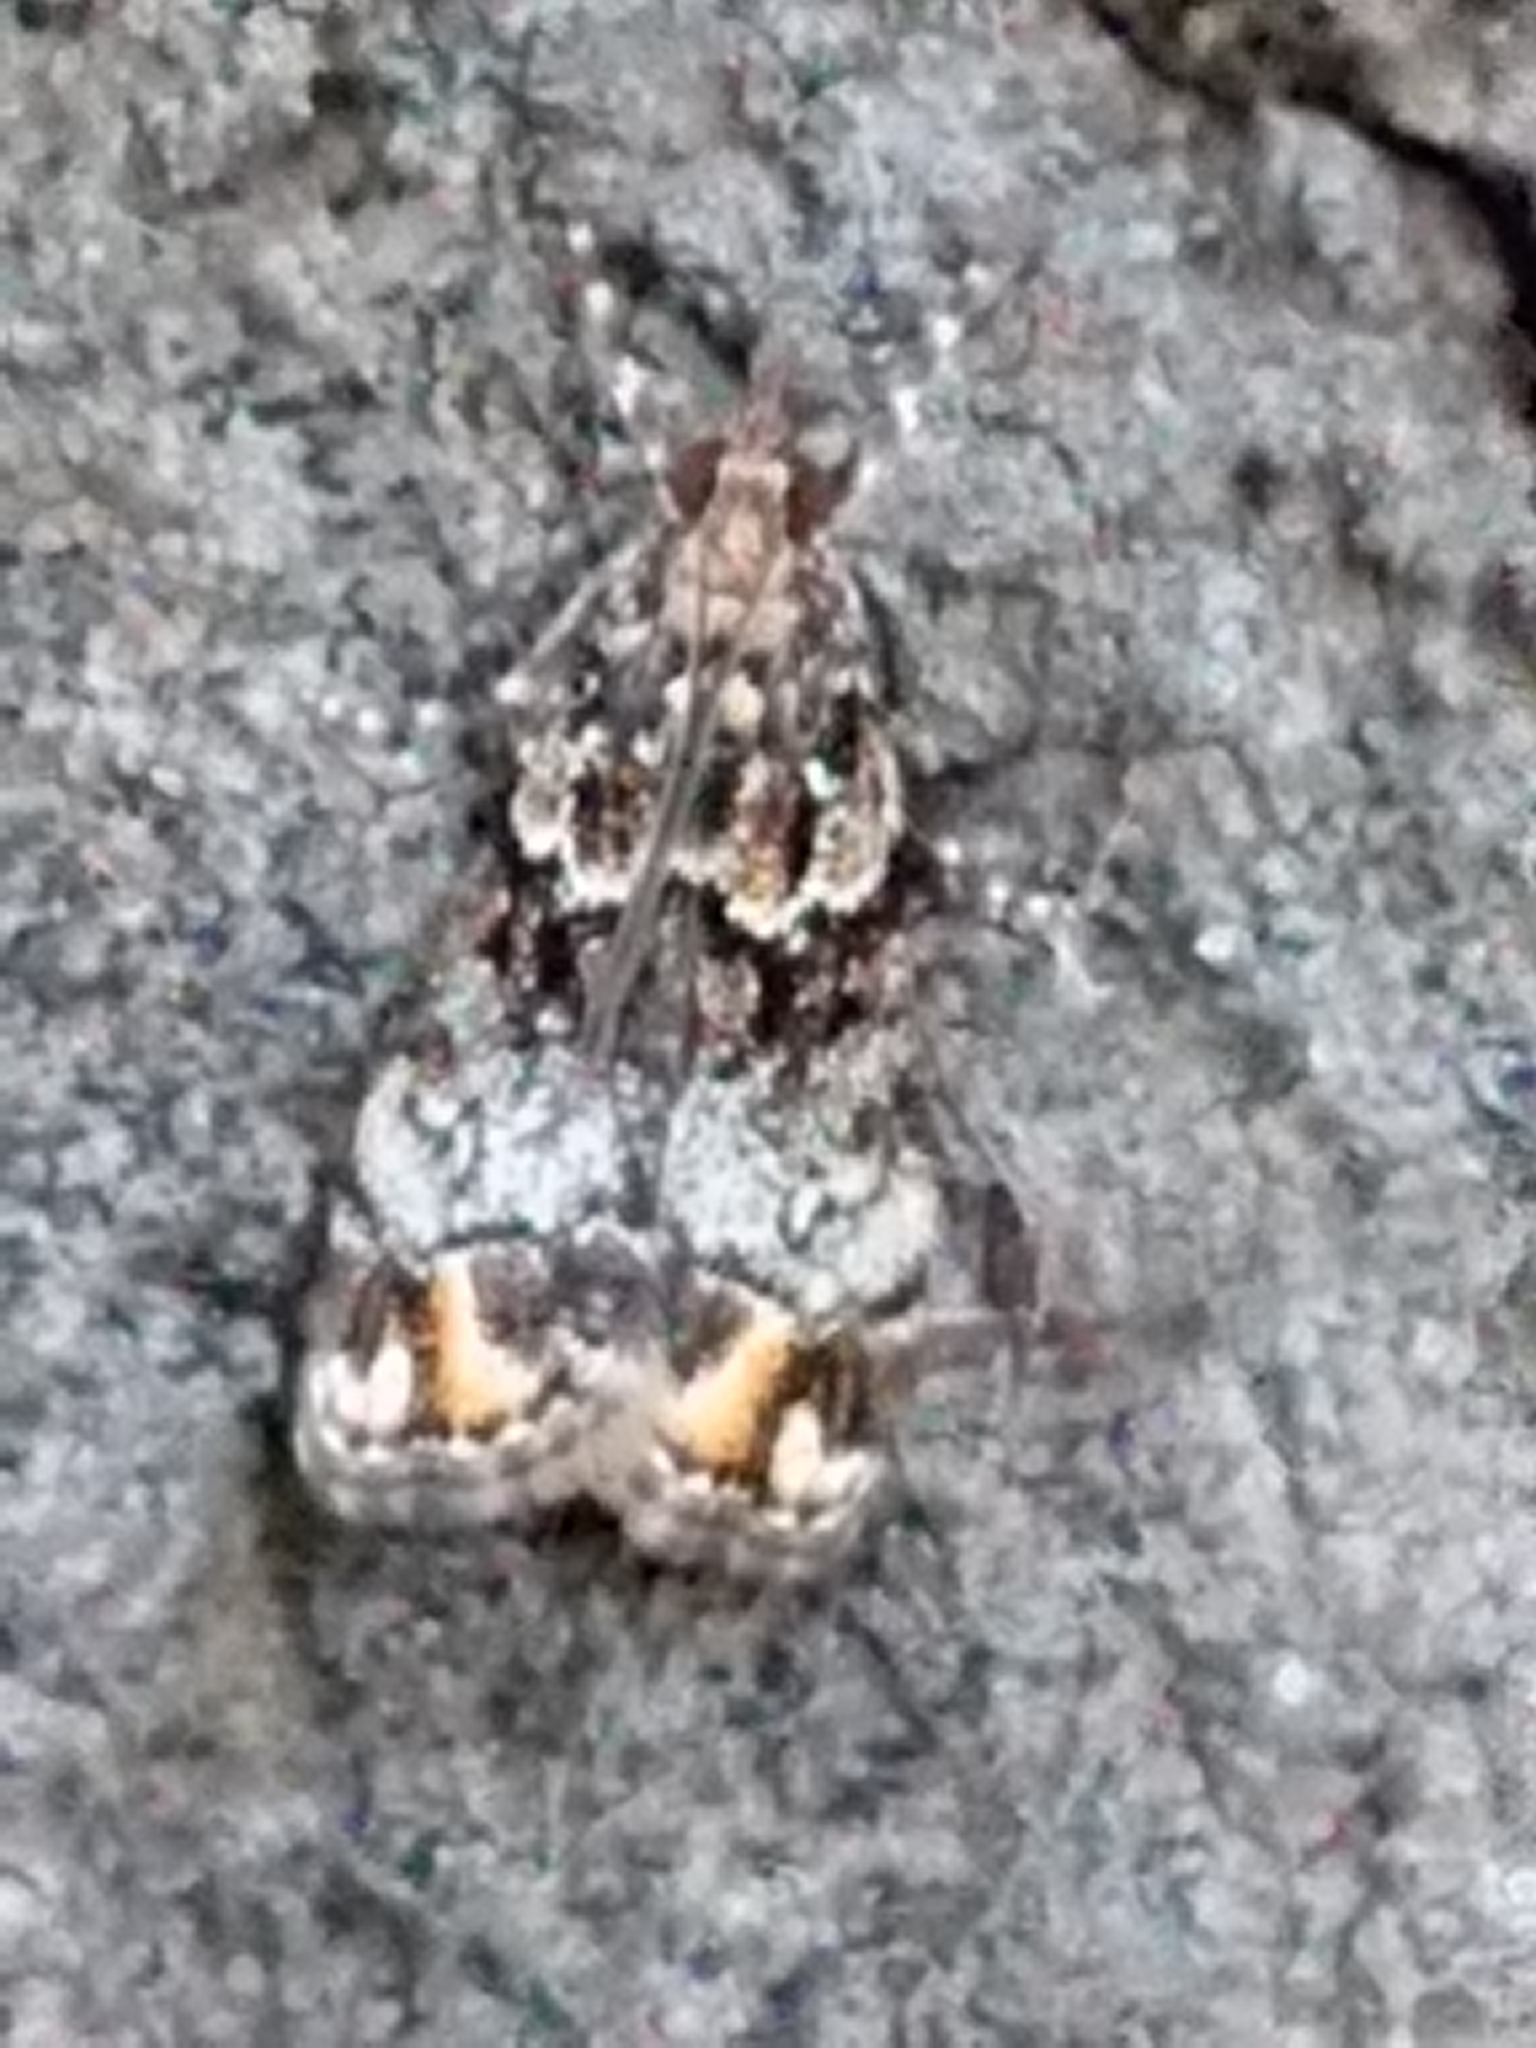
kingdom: Animalia
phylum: Arthropoda
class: Insecta
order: Lepidoptera
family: Crambidae
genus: Eudonia
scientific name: Eudonia minualis
